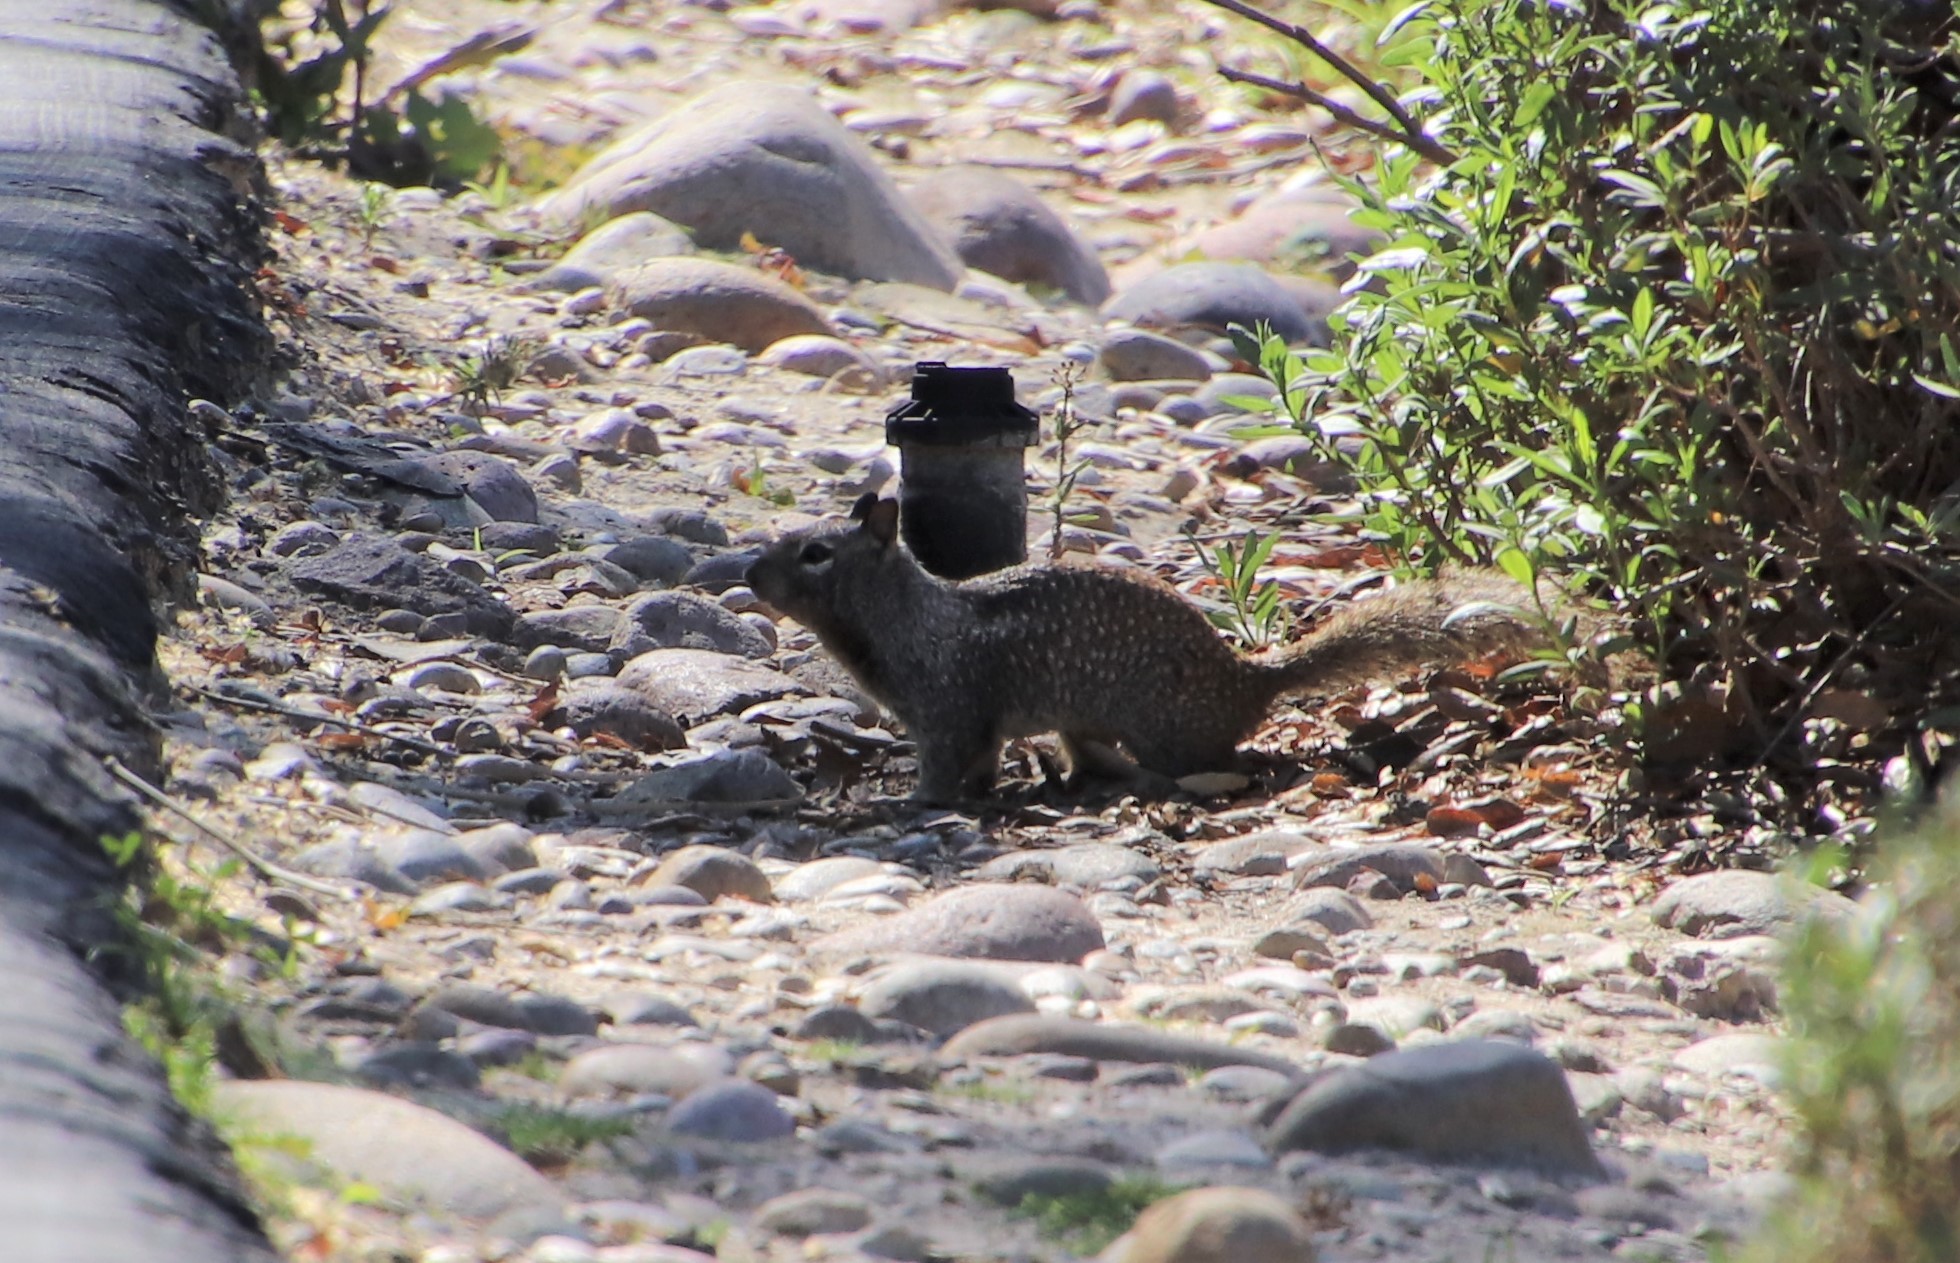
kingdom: Animalia
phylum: Chordata
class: Mammalia
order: Rodentia
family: Sciuridae
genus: Otospermophilus
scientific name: Otospermophilus beecheyi
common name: California ground squirrel
